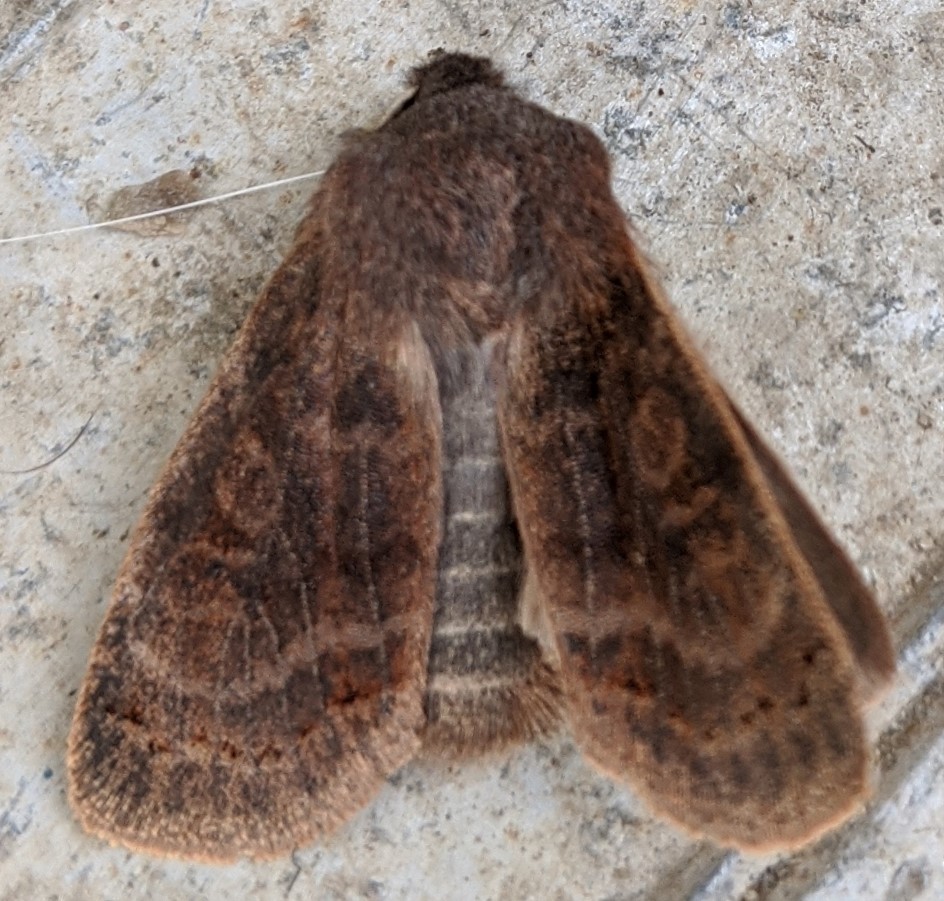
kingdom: Animalia
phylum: Arthropoda
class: Insecta
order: Lepidoptera
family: Noctuidae
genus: Homoglaea
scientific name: Homoglaea hircina
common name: Goat sallow
